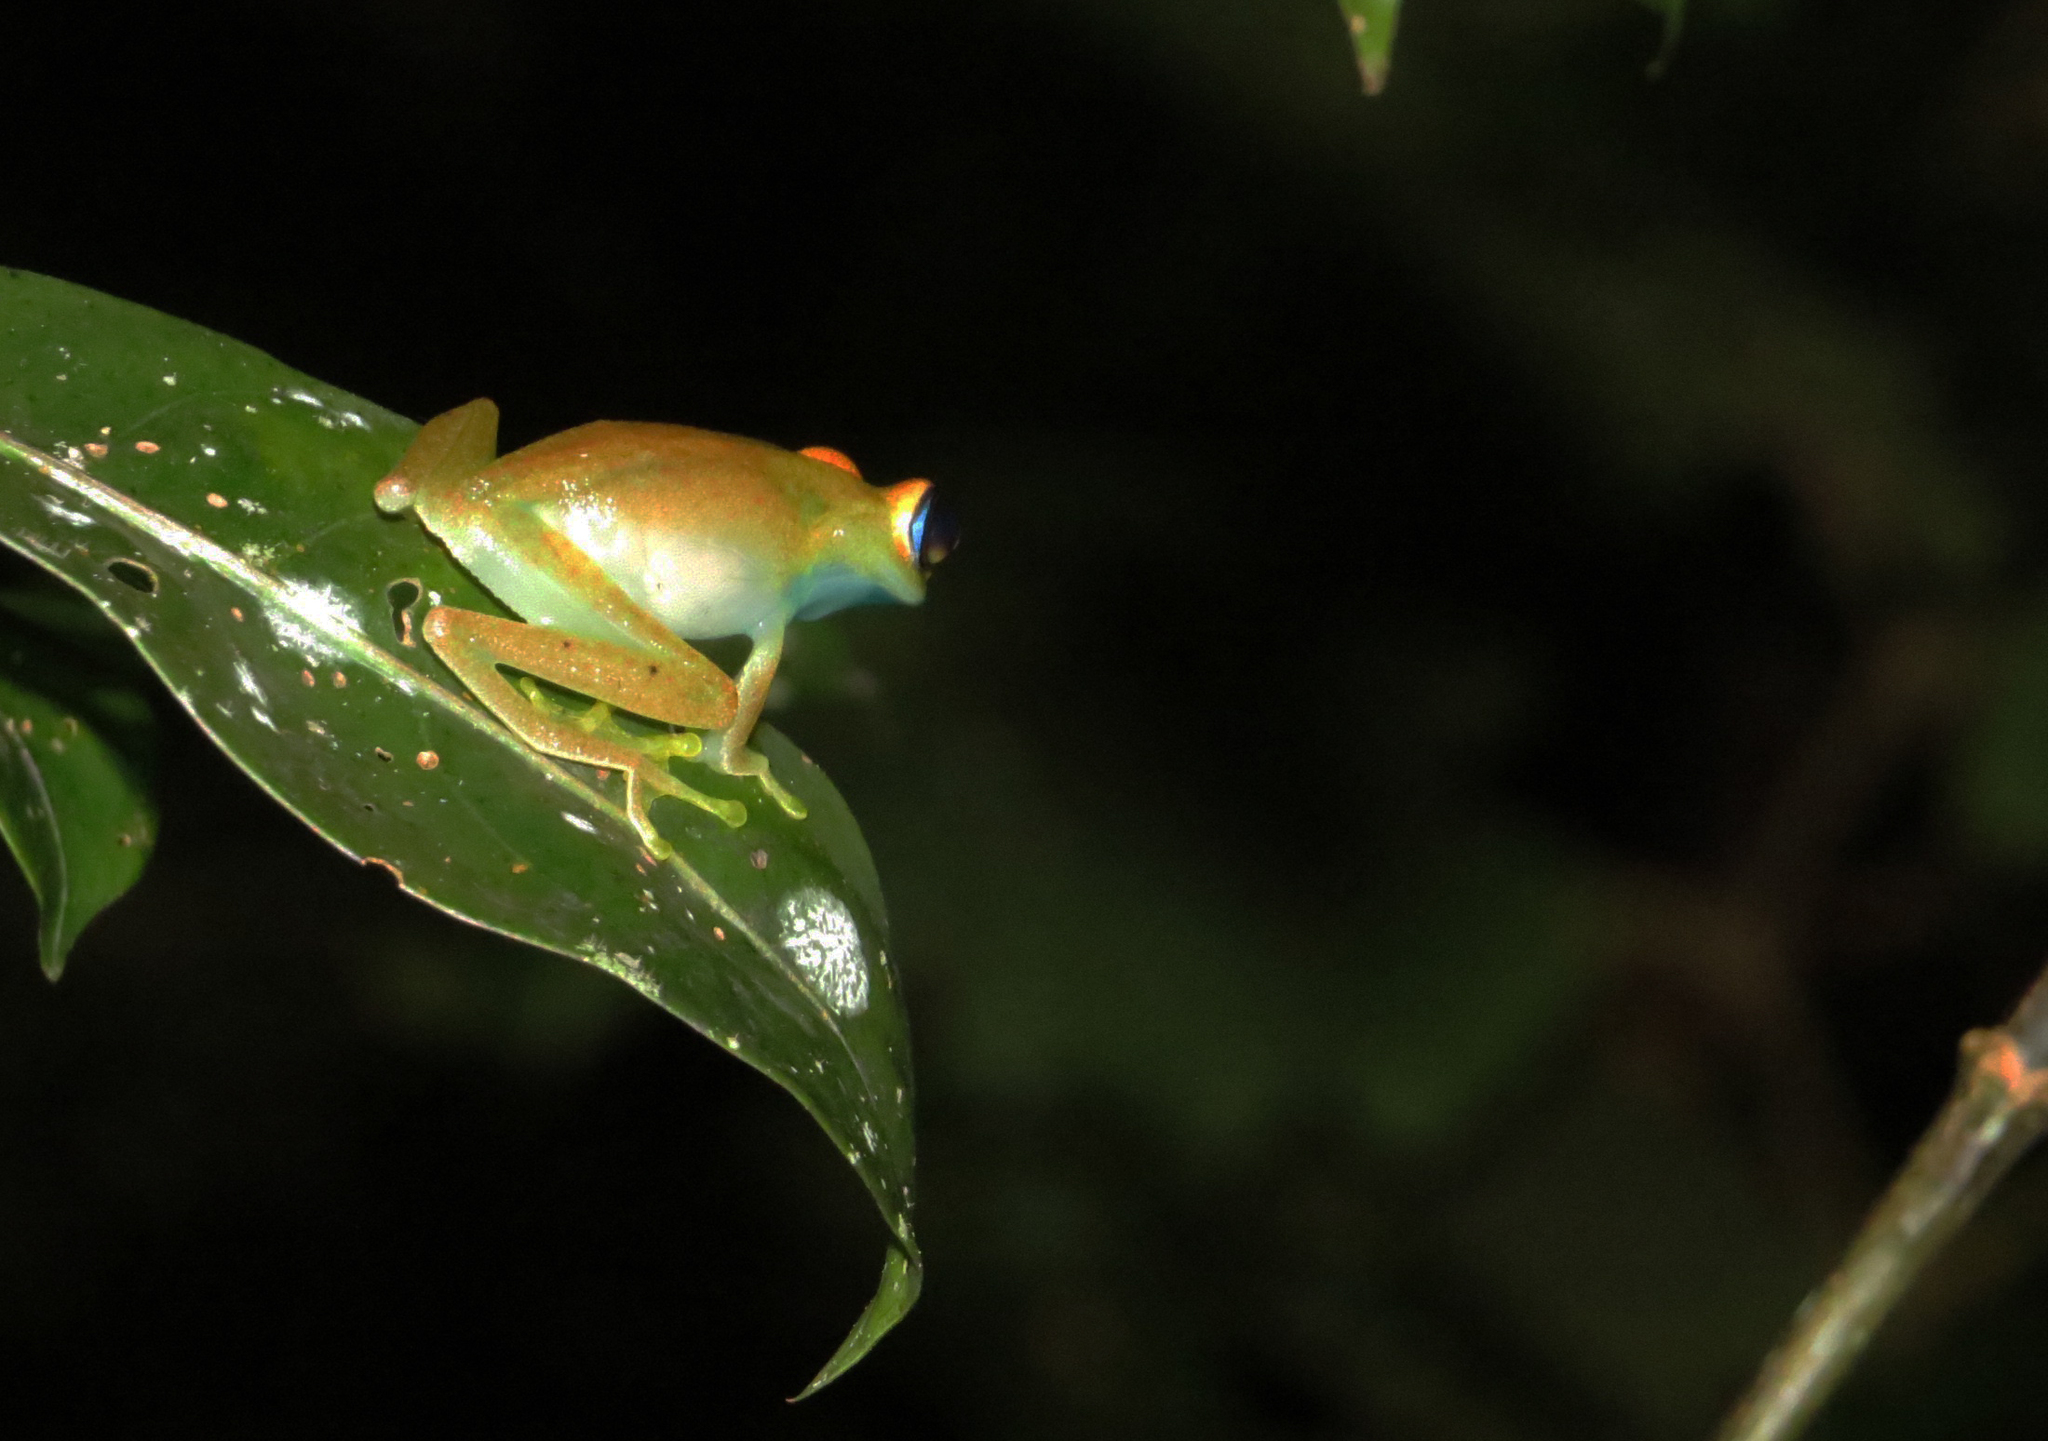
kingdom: Animalia
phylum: Chordata
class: Amphibia
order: Anura
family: Mantellidae
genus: Boophis
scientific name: Boophis viridis
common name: Green bright-eyed frog
